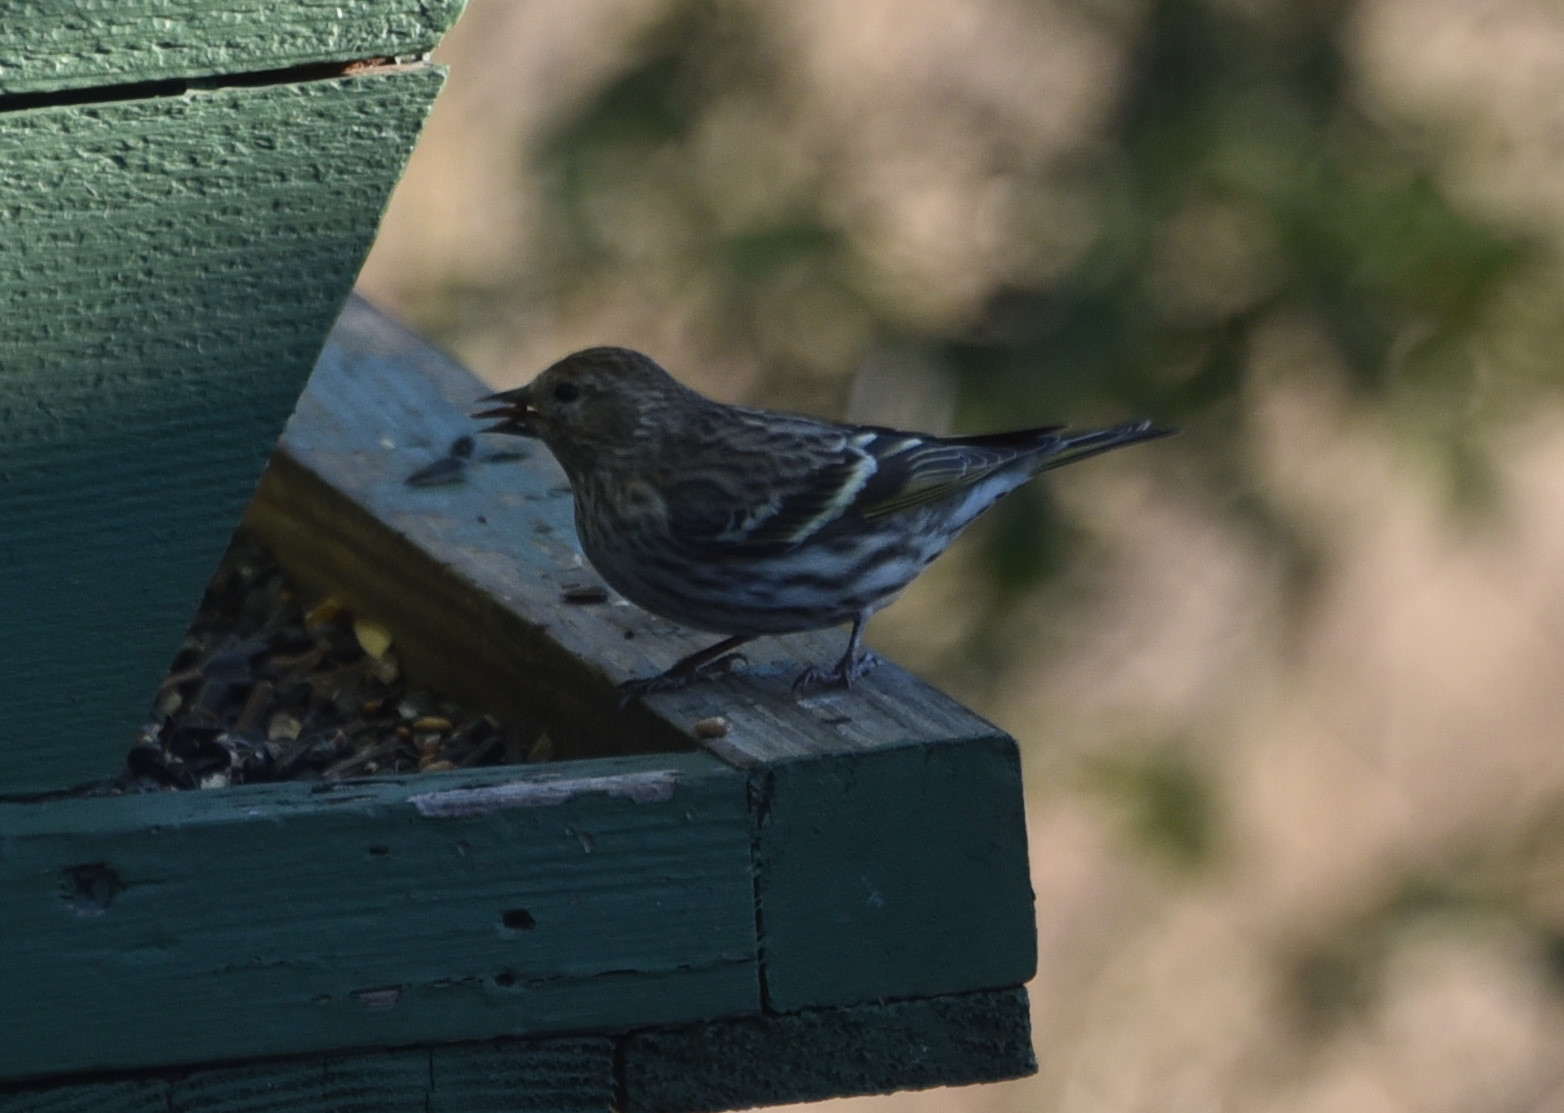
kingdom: Animalia
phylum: Chordata
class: Aves
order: Passeriformes
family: Fringillidae
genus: Spinus
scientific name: Spinus pinus
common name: Pine siskin
